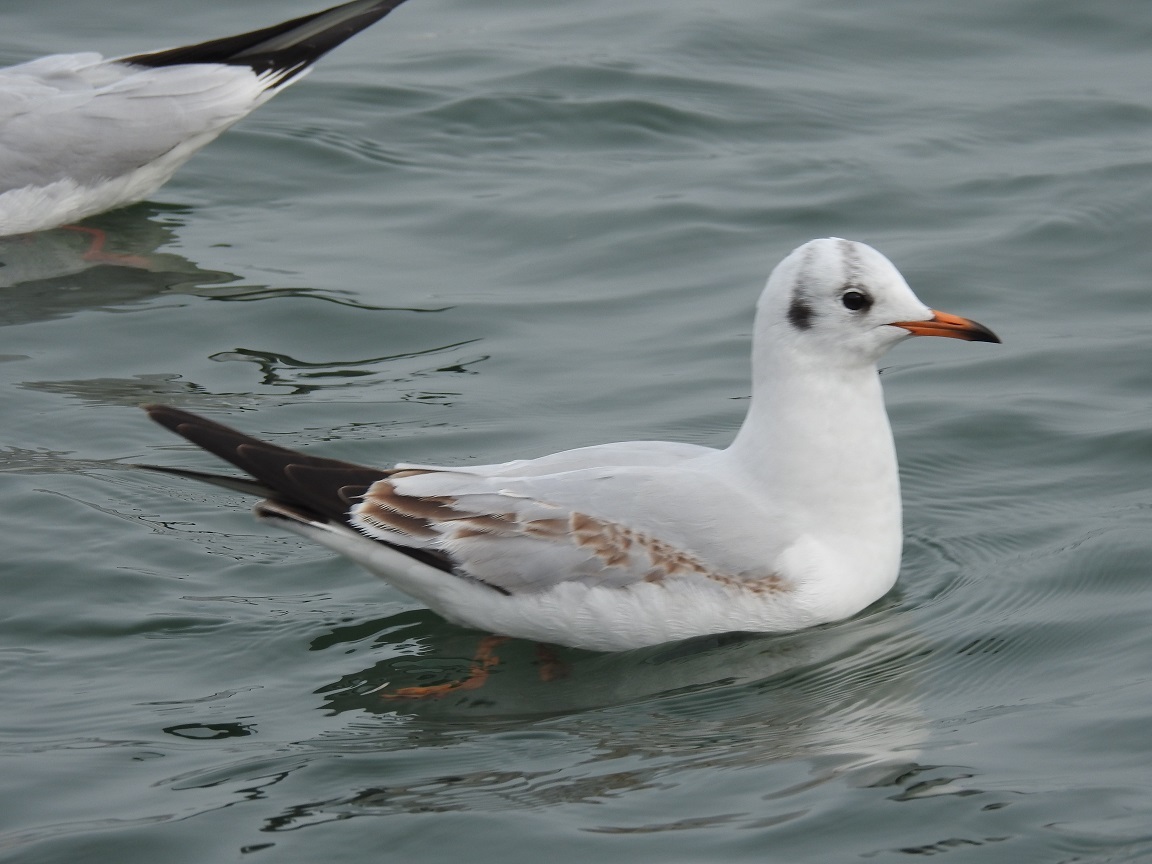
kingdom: Animalia
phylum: Chordata
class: Aves
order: Charadriiformes
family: Laridae
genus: Chroicocephalus
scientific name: Chroicocephalus ridibundus
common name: Black-headed gull
